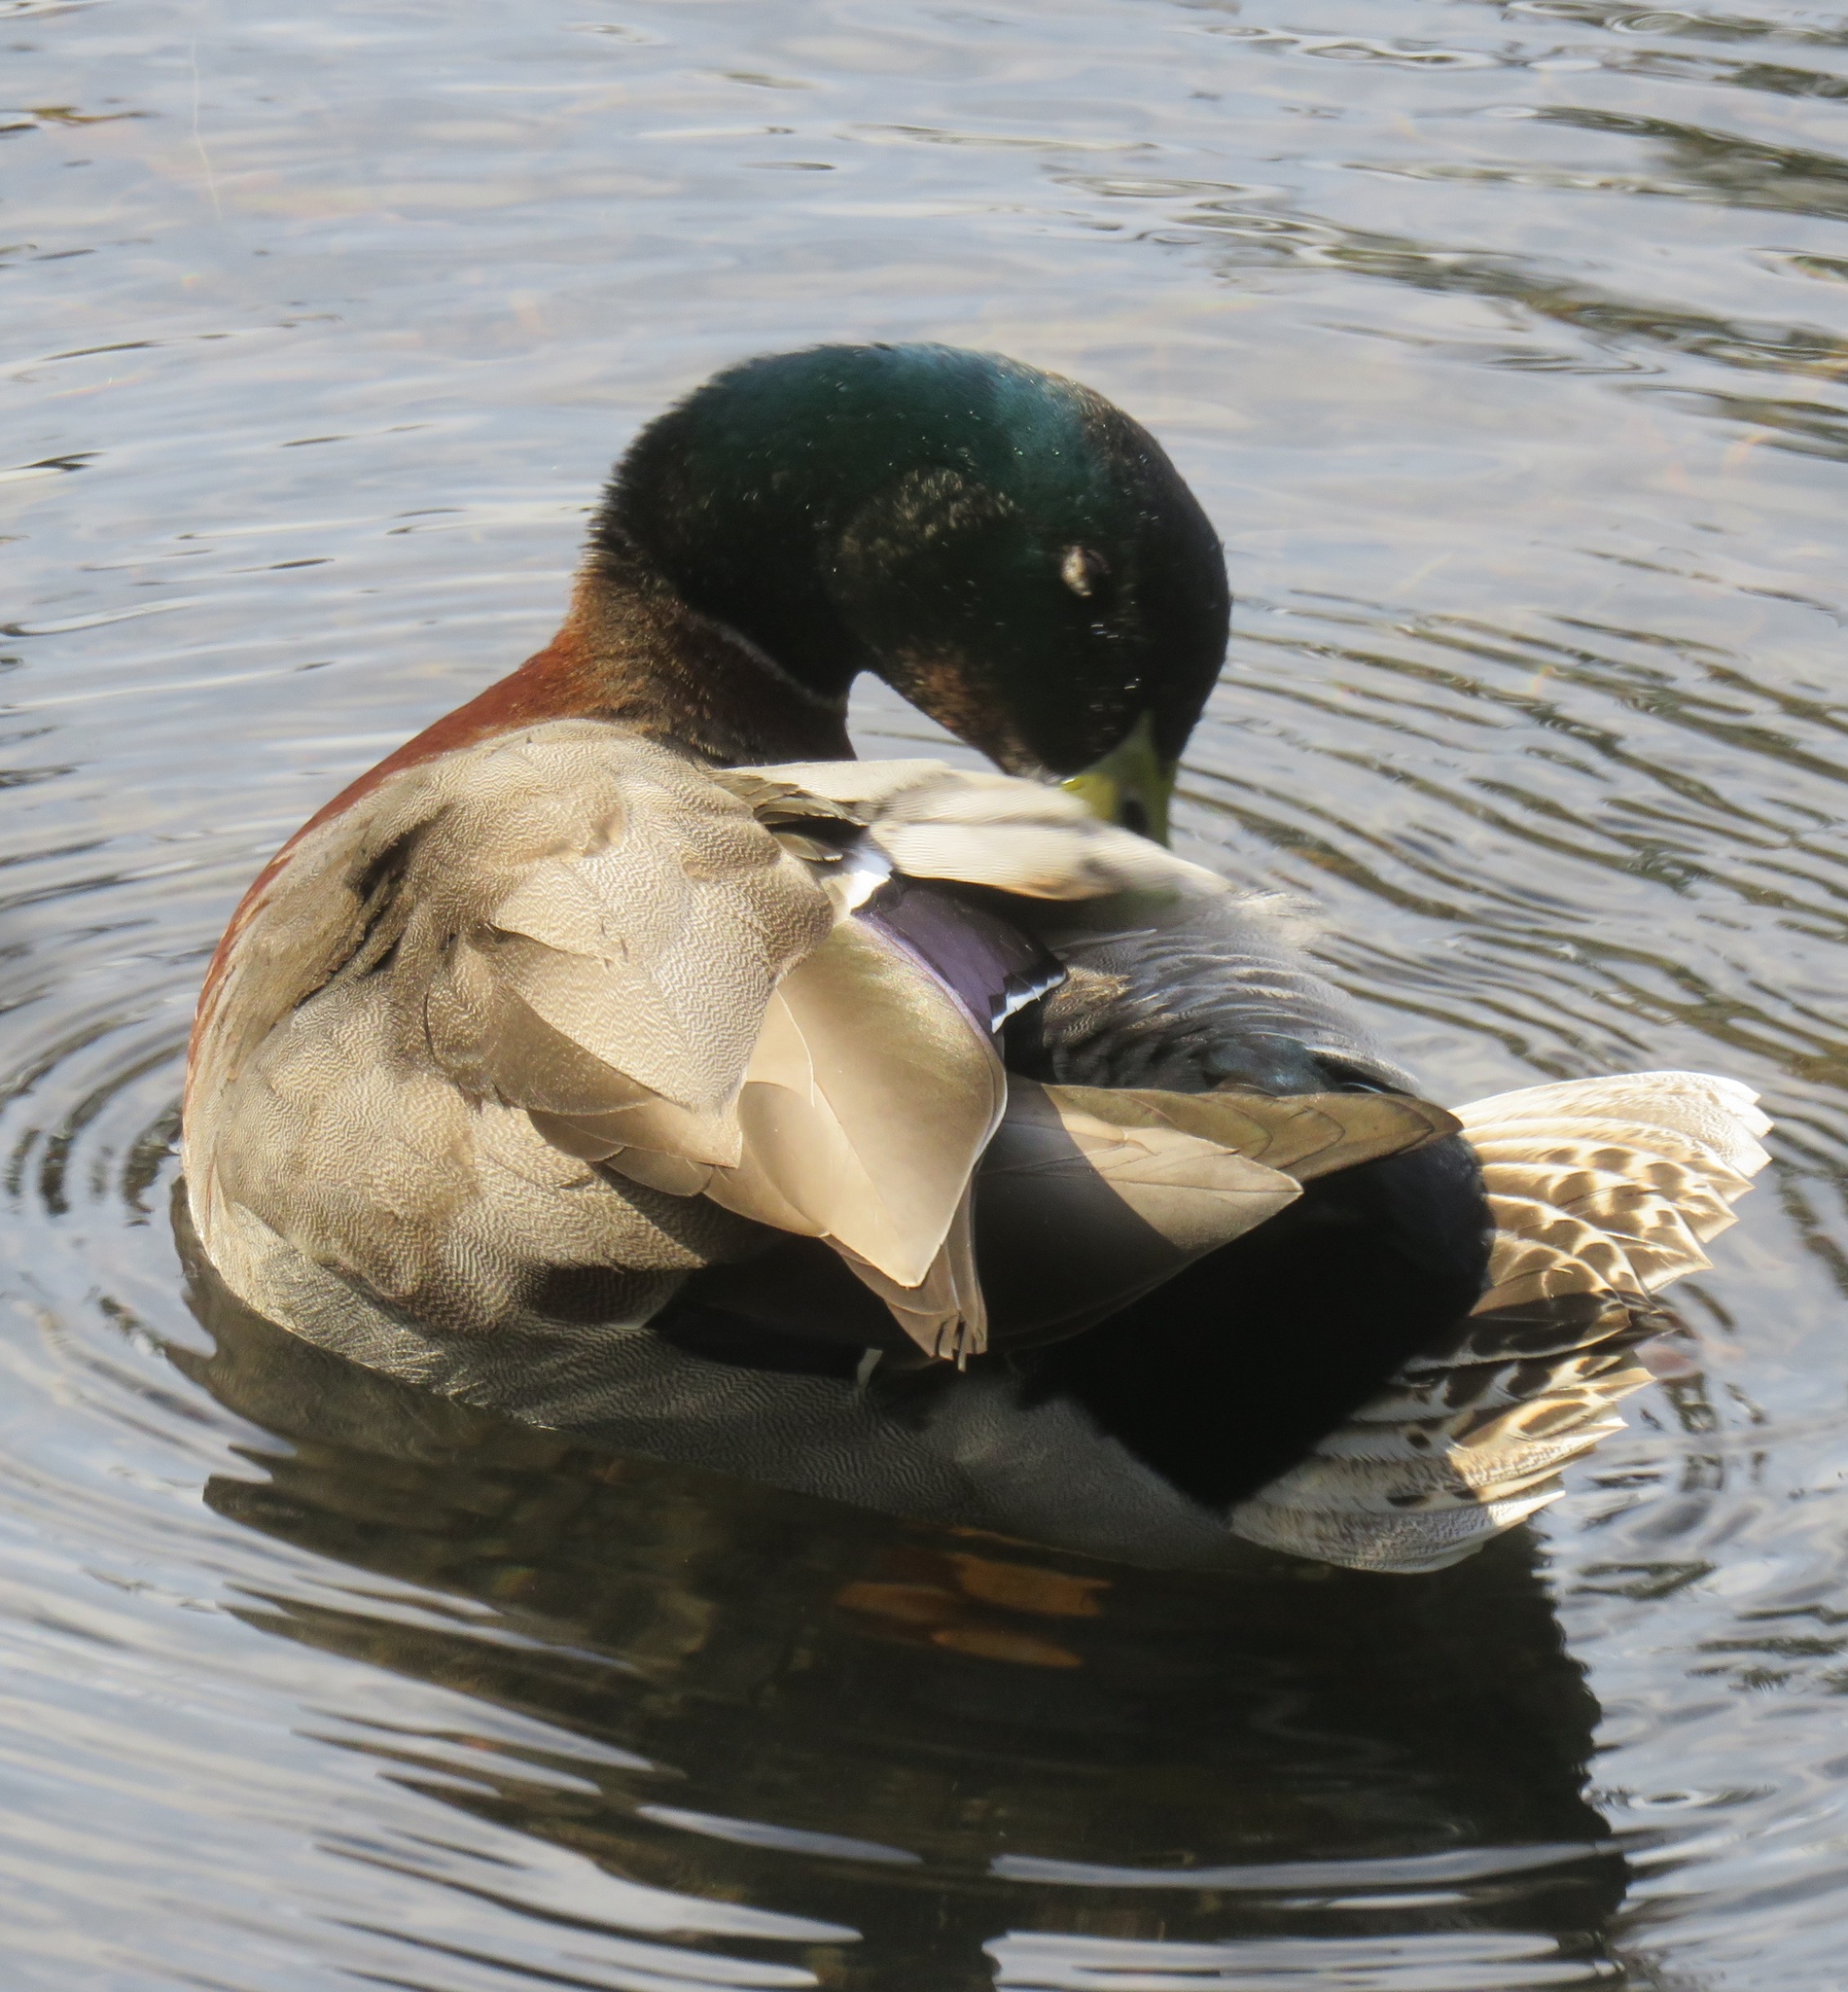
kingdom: Animalia
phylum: Chordata
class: Aves
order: Anseriformes
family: Anatidae
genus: Anas
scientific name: Anas platyrhynchos
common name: Mallard
